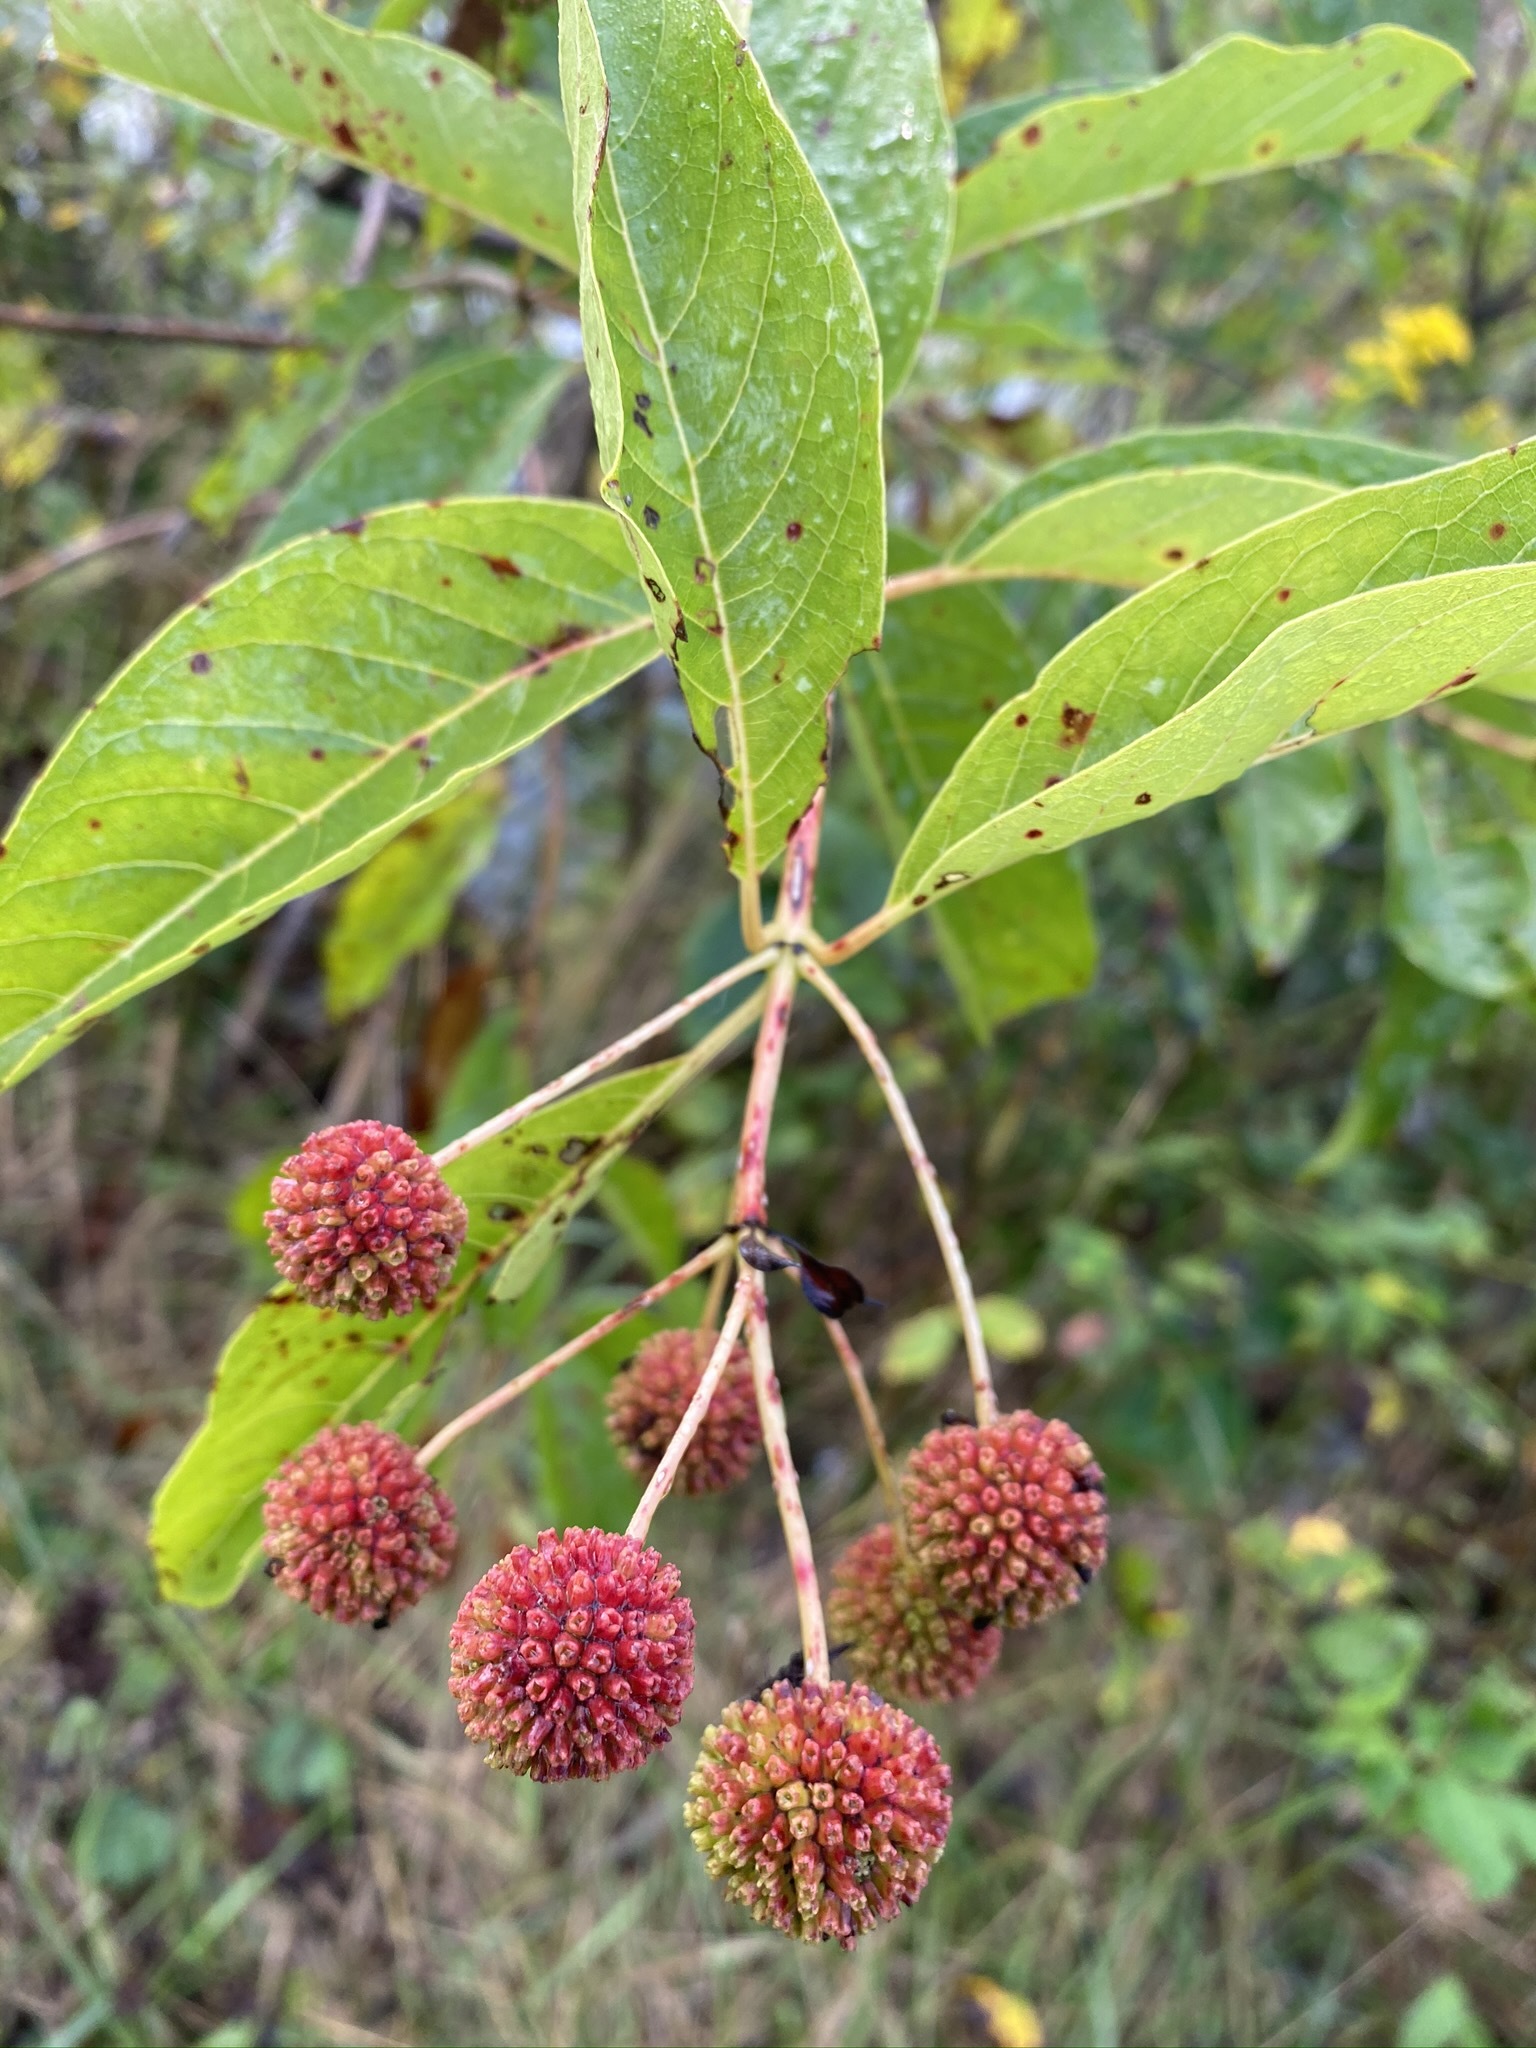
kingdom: Plantae
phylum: Tracheophyta
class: Magnoliopsida
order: Gentianales
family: Rubiaceae
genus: Cephalanthus
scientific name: Cephalanthus occidentalis
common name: Button-willow
